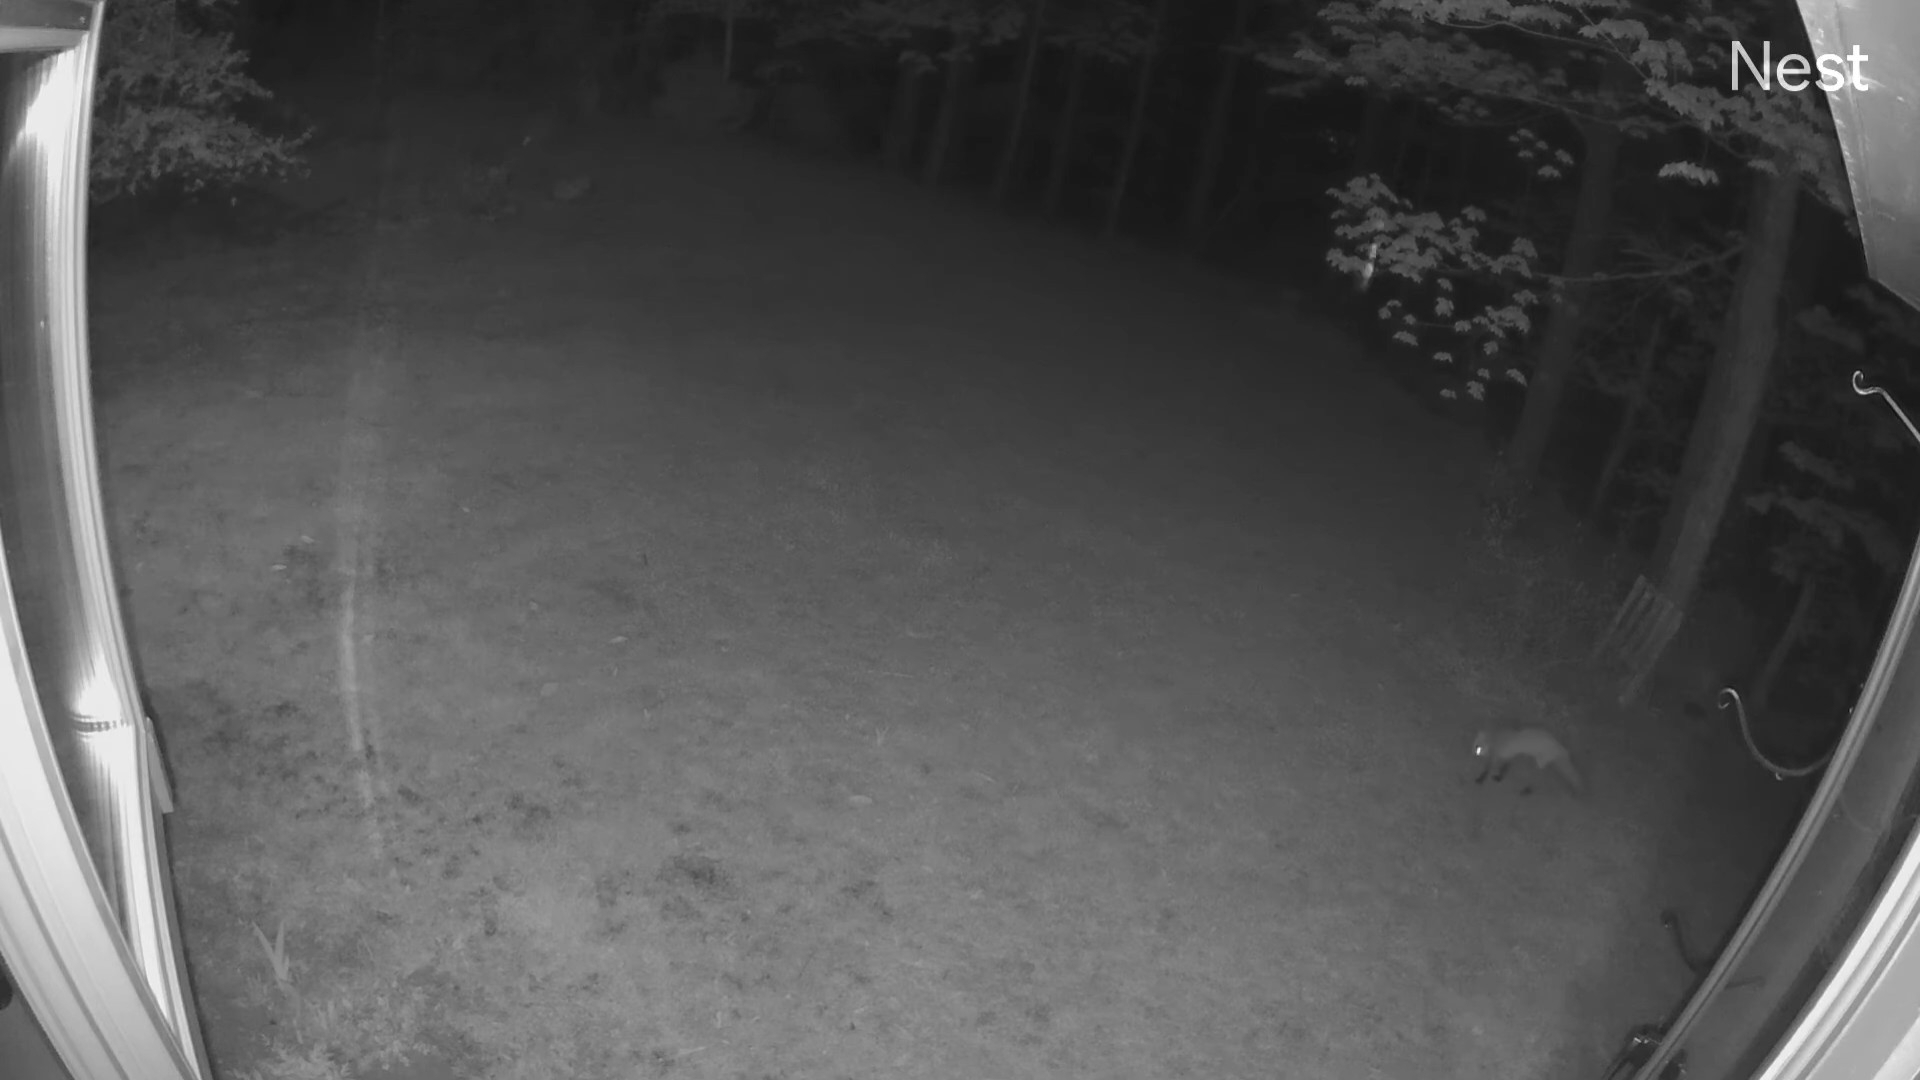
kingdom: Animalia
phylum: Chordata
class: Mammalia
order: Carnivora
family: Canidae
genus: Vulpes
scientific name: Vulpes vulpes
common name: Red fox
